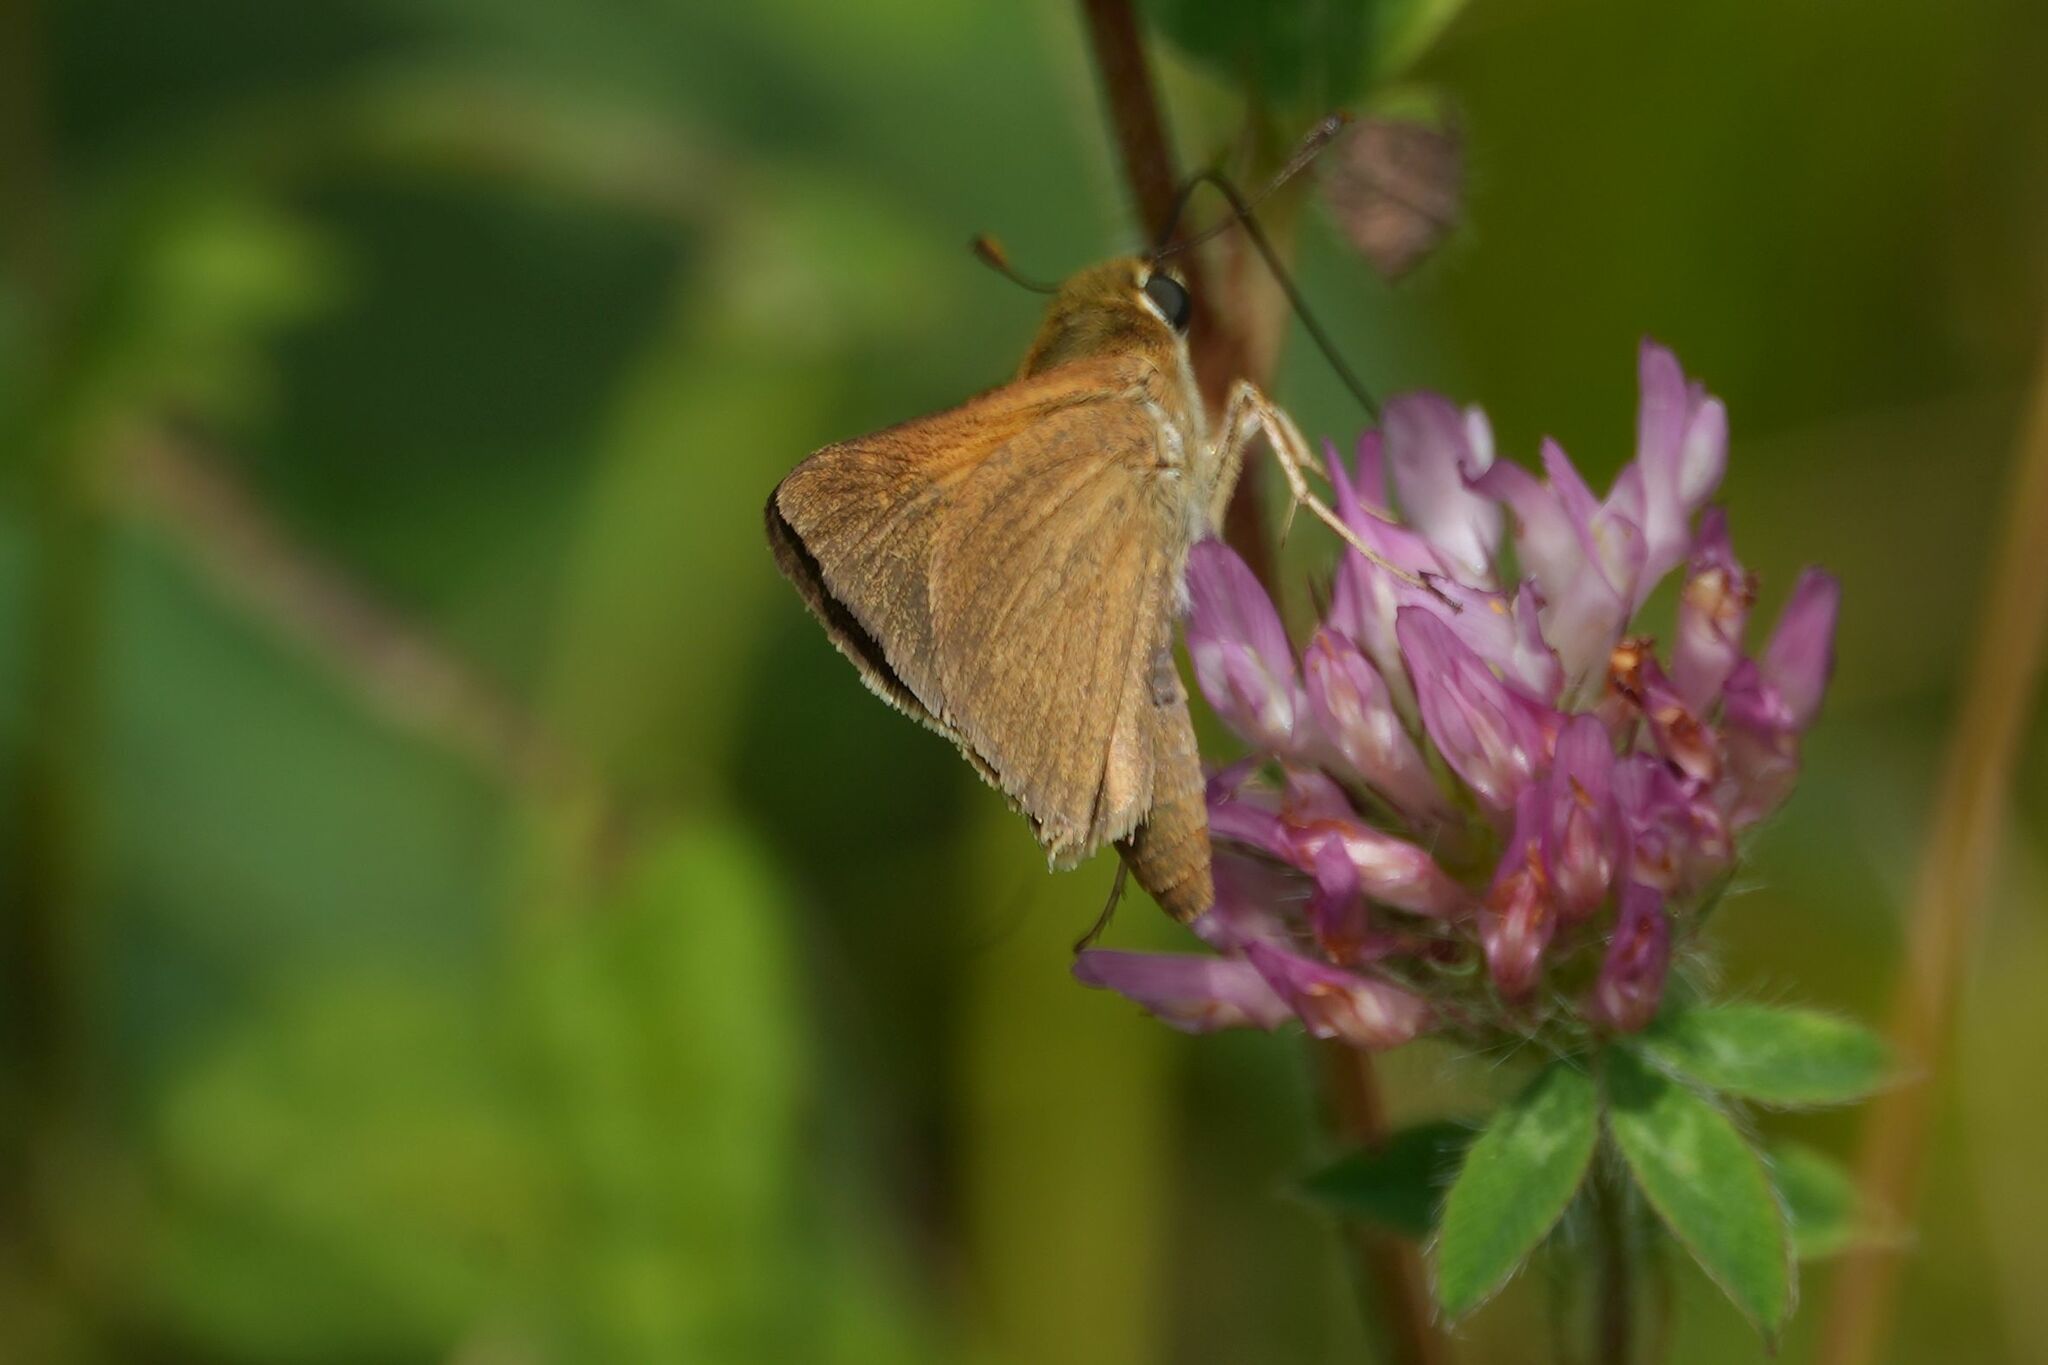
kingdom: Animalia
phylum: Arthropoda
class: Insecta
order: Lepidoptera
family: Hesperiidae
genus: Polites
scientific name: Polites origenes
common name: Crossline skipper
